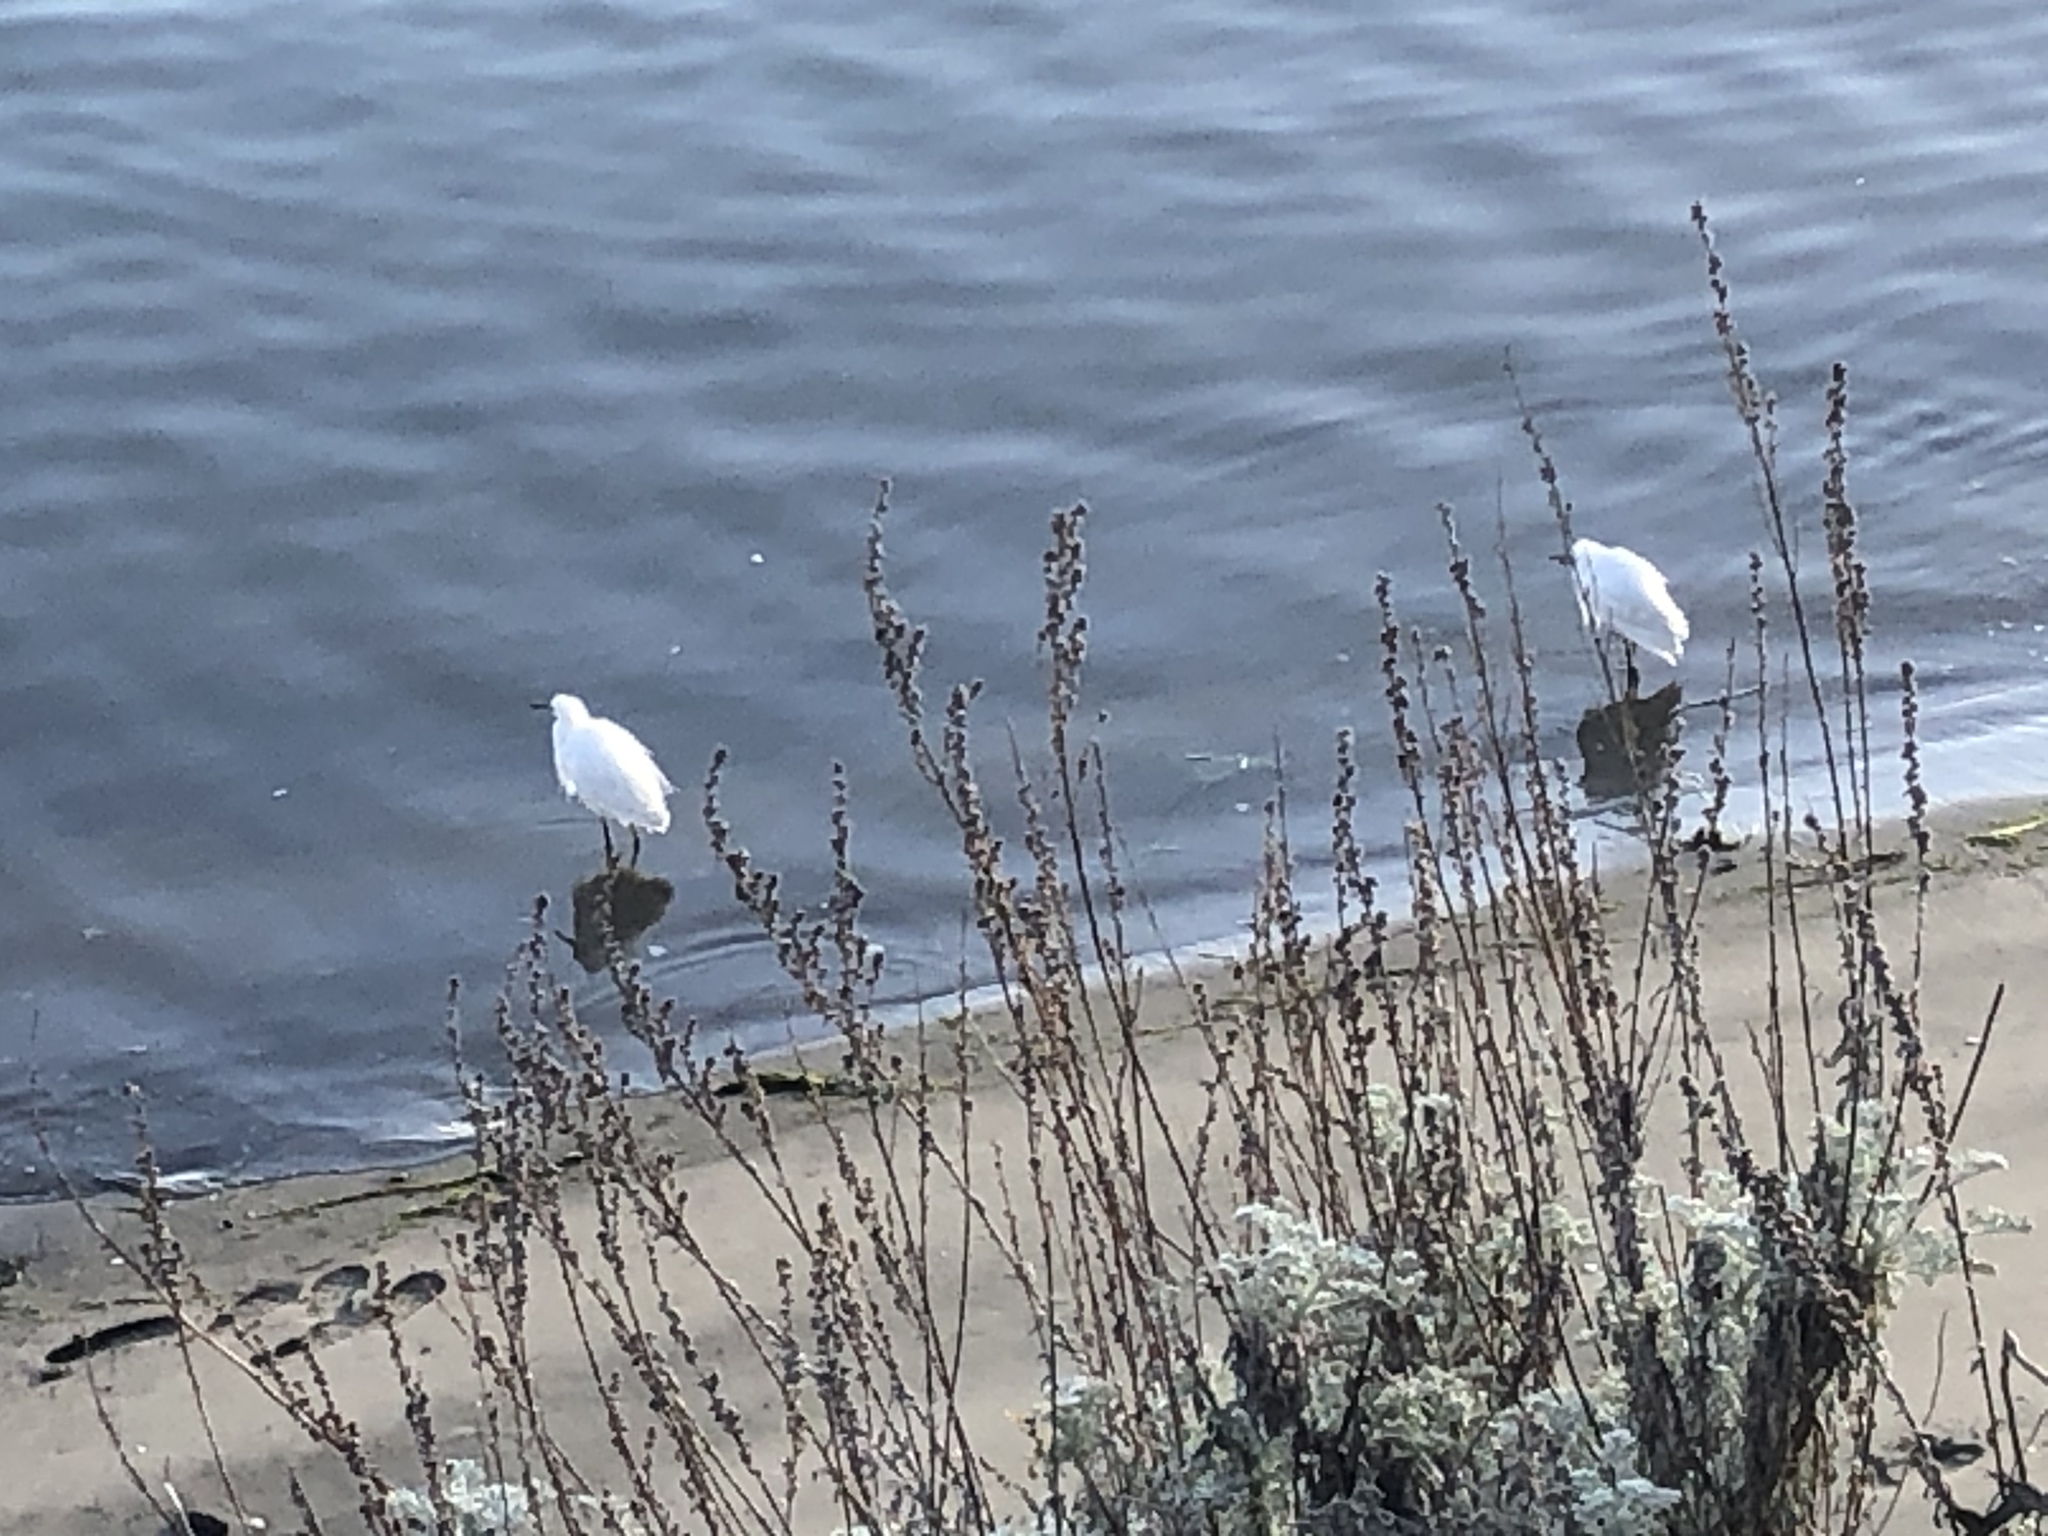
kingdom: Animalia
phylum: Chordata
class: Aves
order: Pelecaniformes
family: Ardeidae
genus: Egretta
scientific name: Egretta thula
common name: Snowy egret
